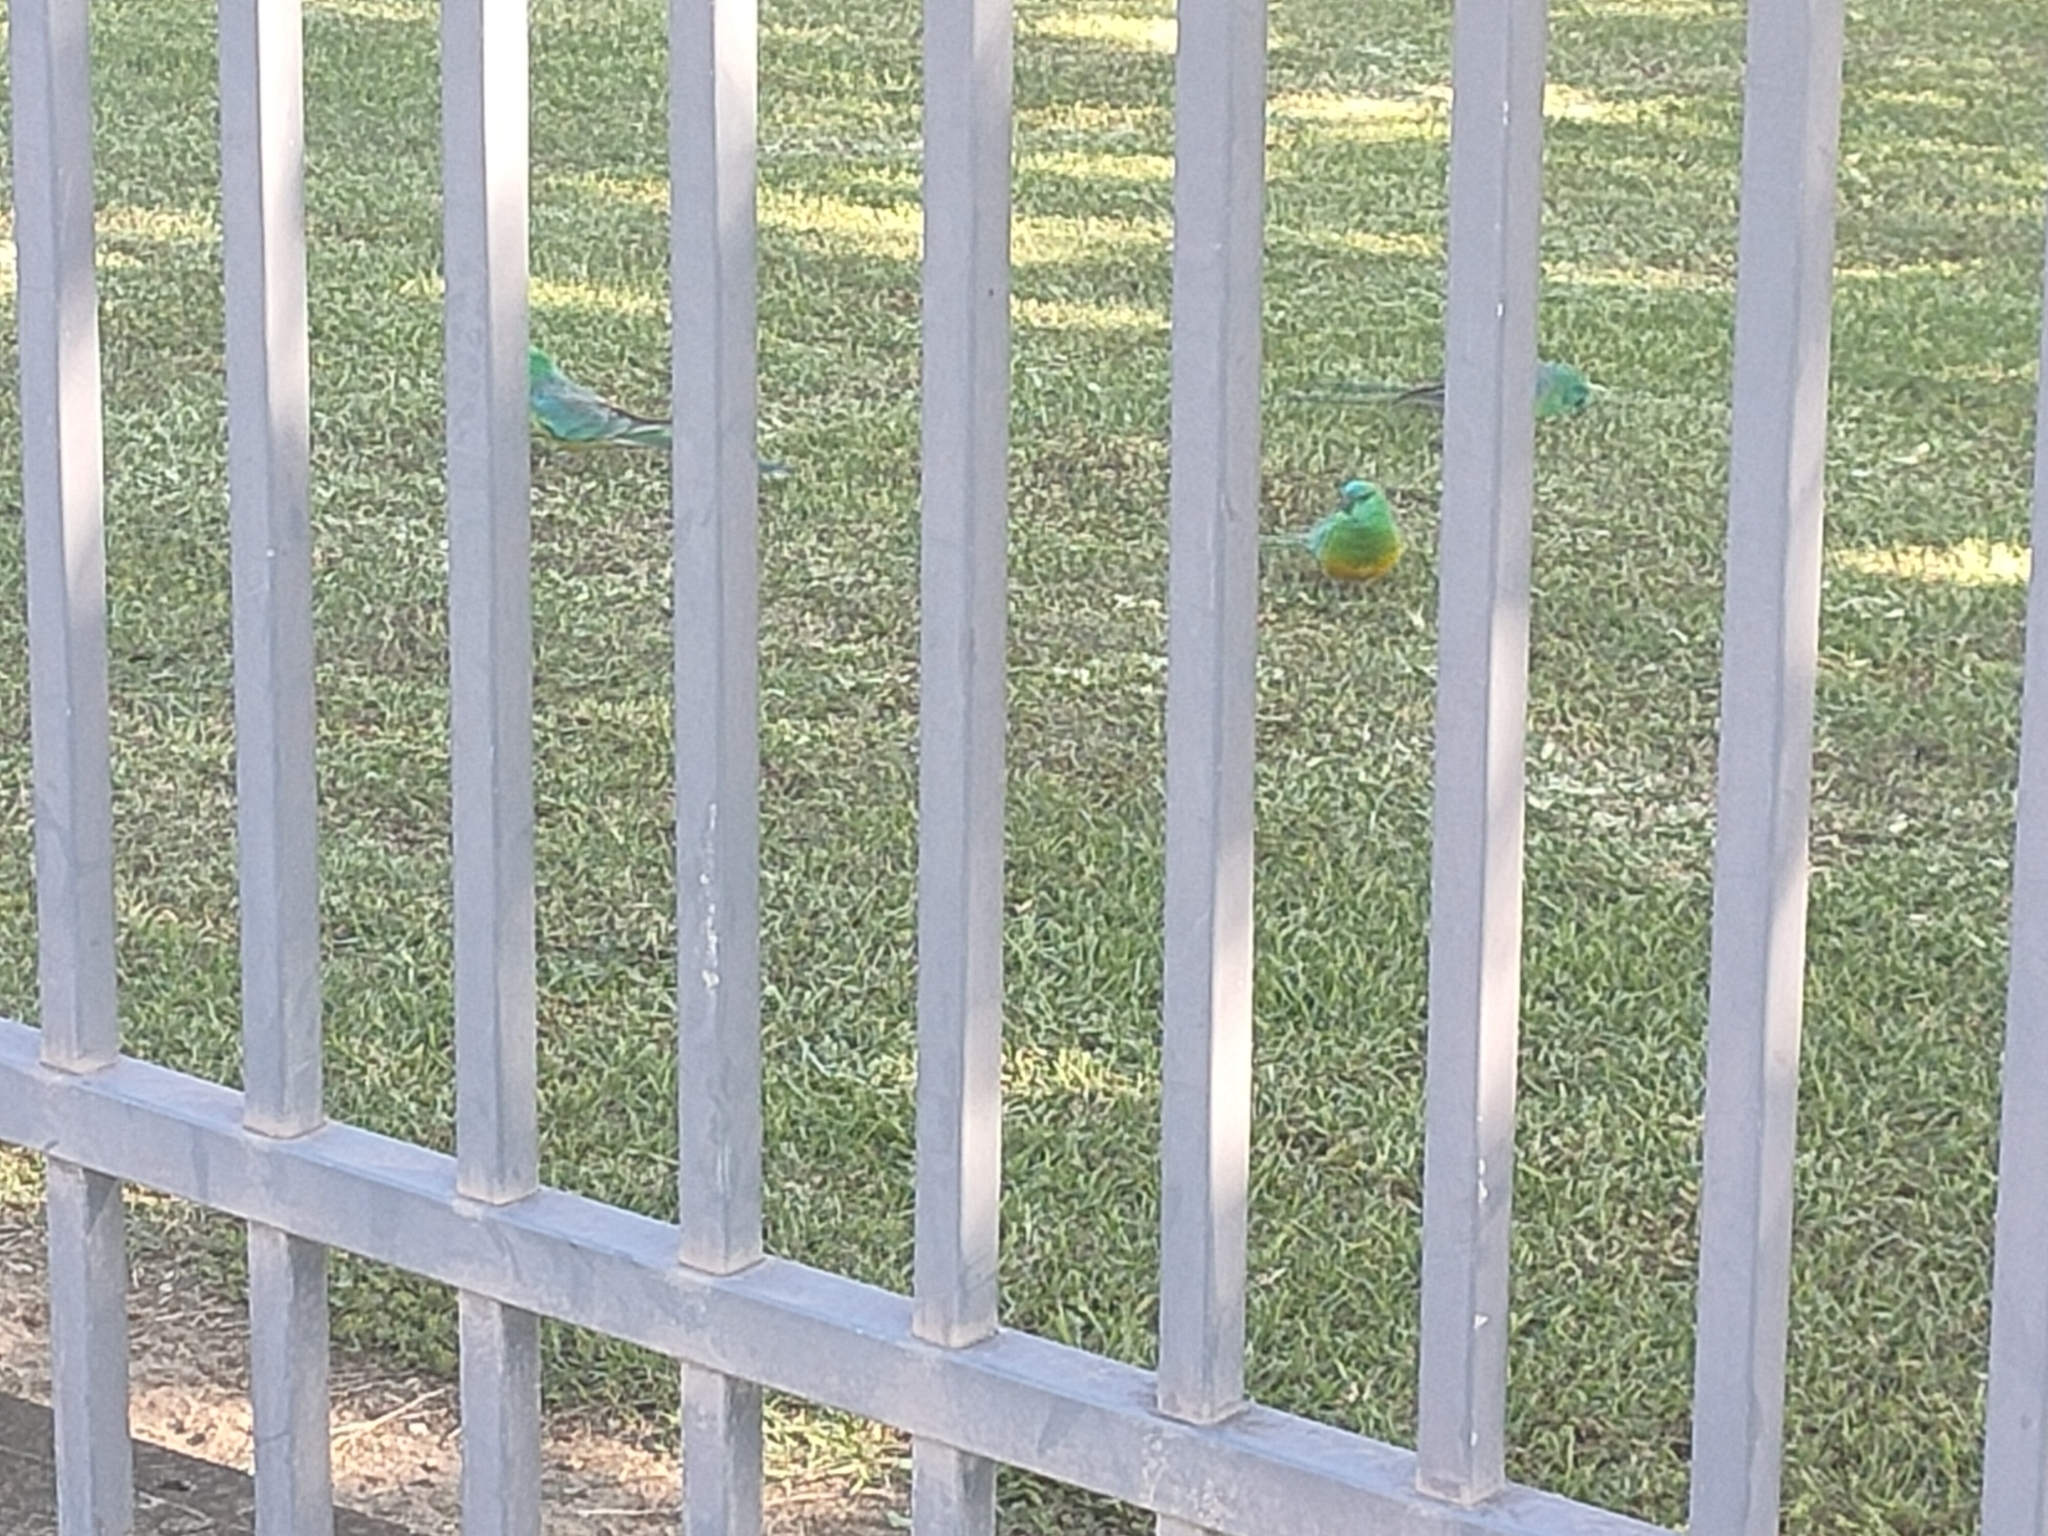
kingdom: Animalia
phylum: Chordata
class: Aves
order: Psittaciformes
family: Psittacidae
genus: Psephotus
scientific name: Psephotus haematonotus
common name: Red-rumped parrot
